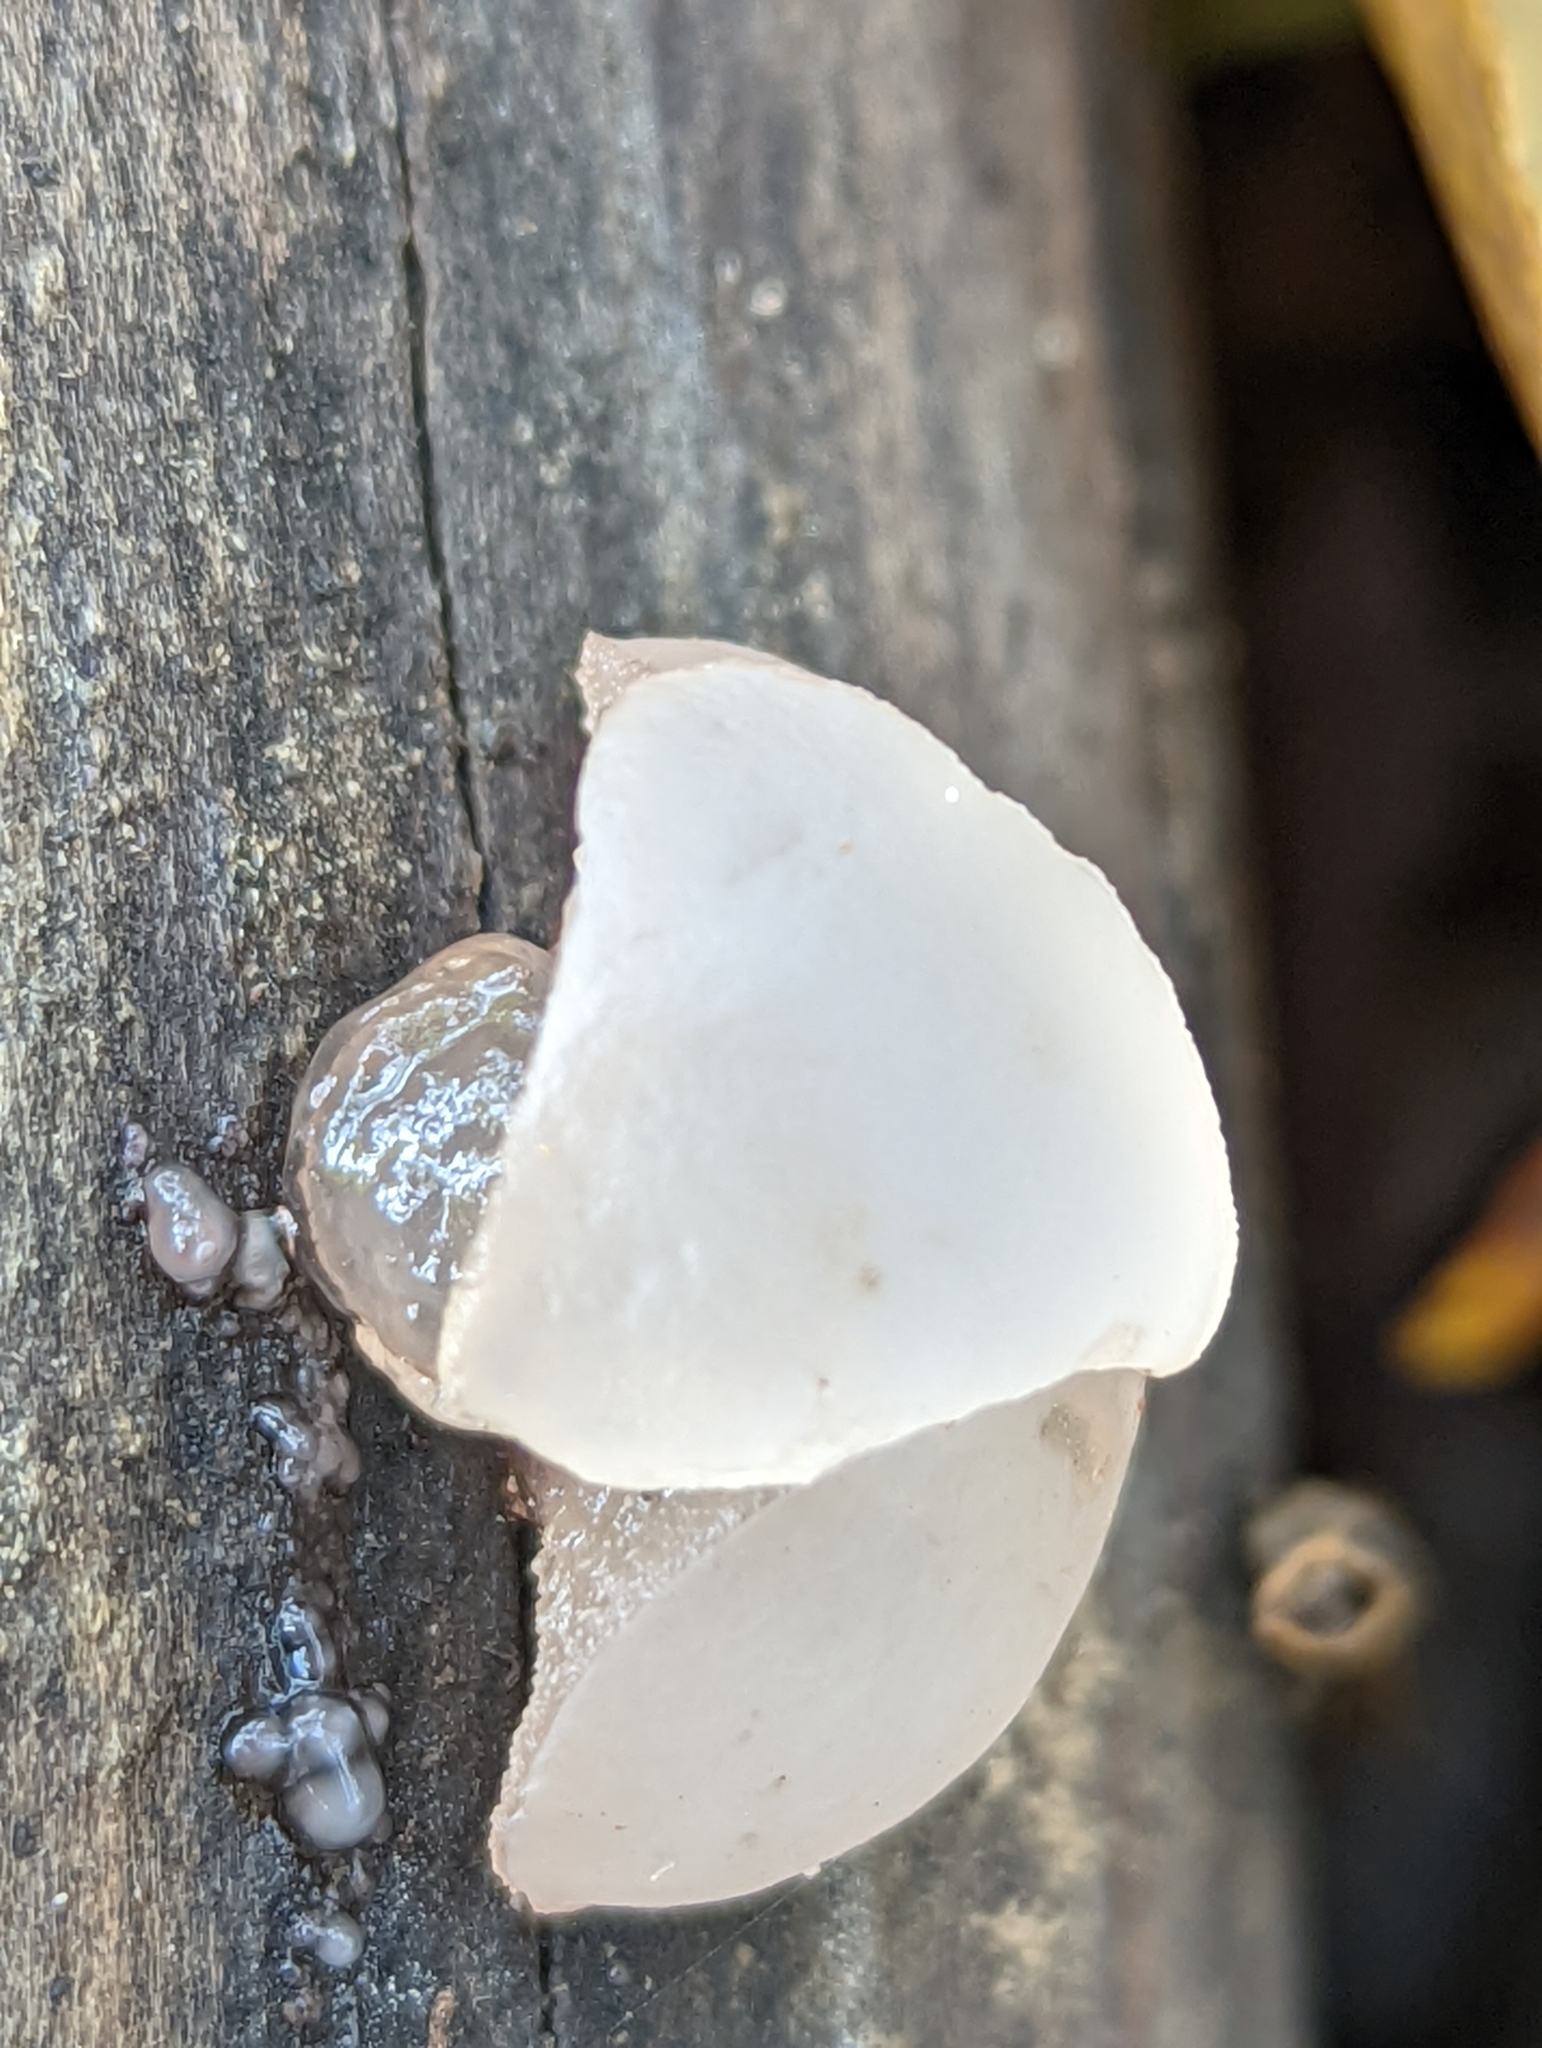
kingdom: Fungi
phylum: Ascomycota
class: Leotiomycetes
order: Helotiales
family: Gelatinodiscaceae
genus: Neobulgaria
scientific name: Neobulgaria pura
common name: Beech jelly-disc
